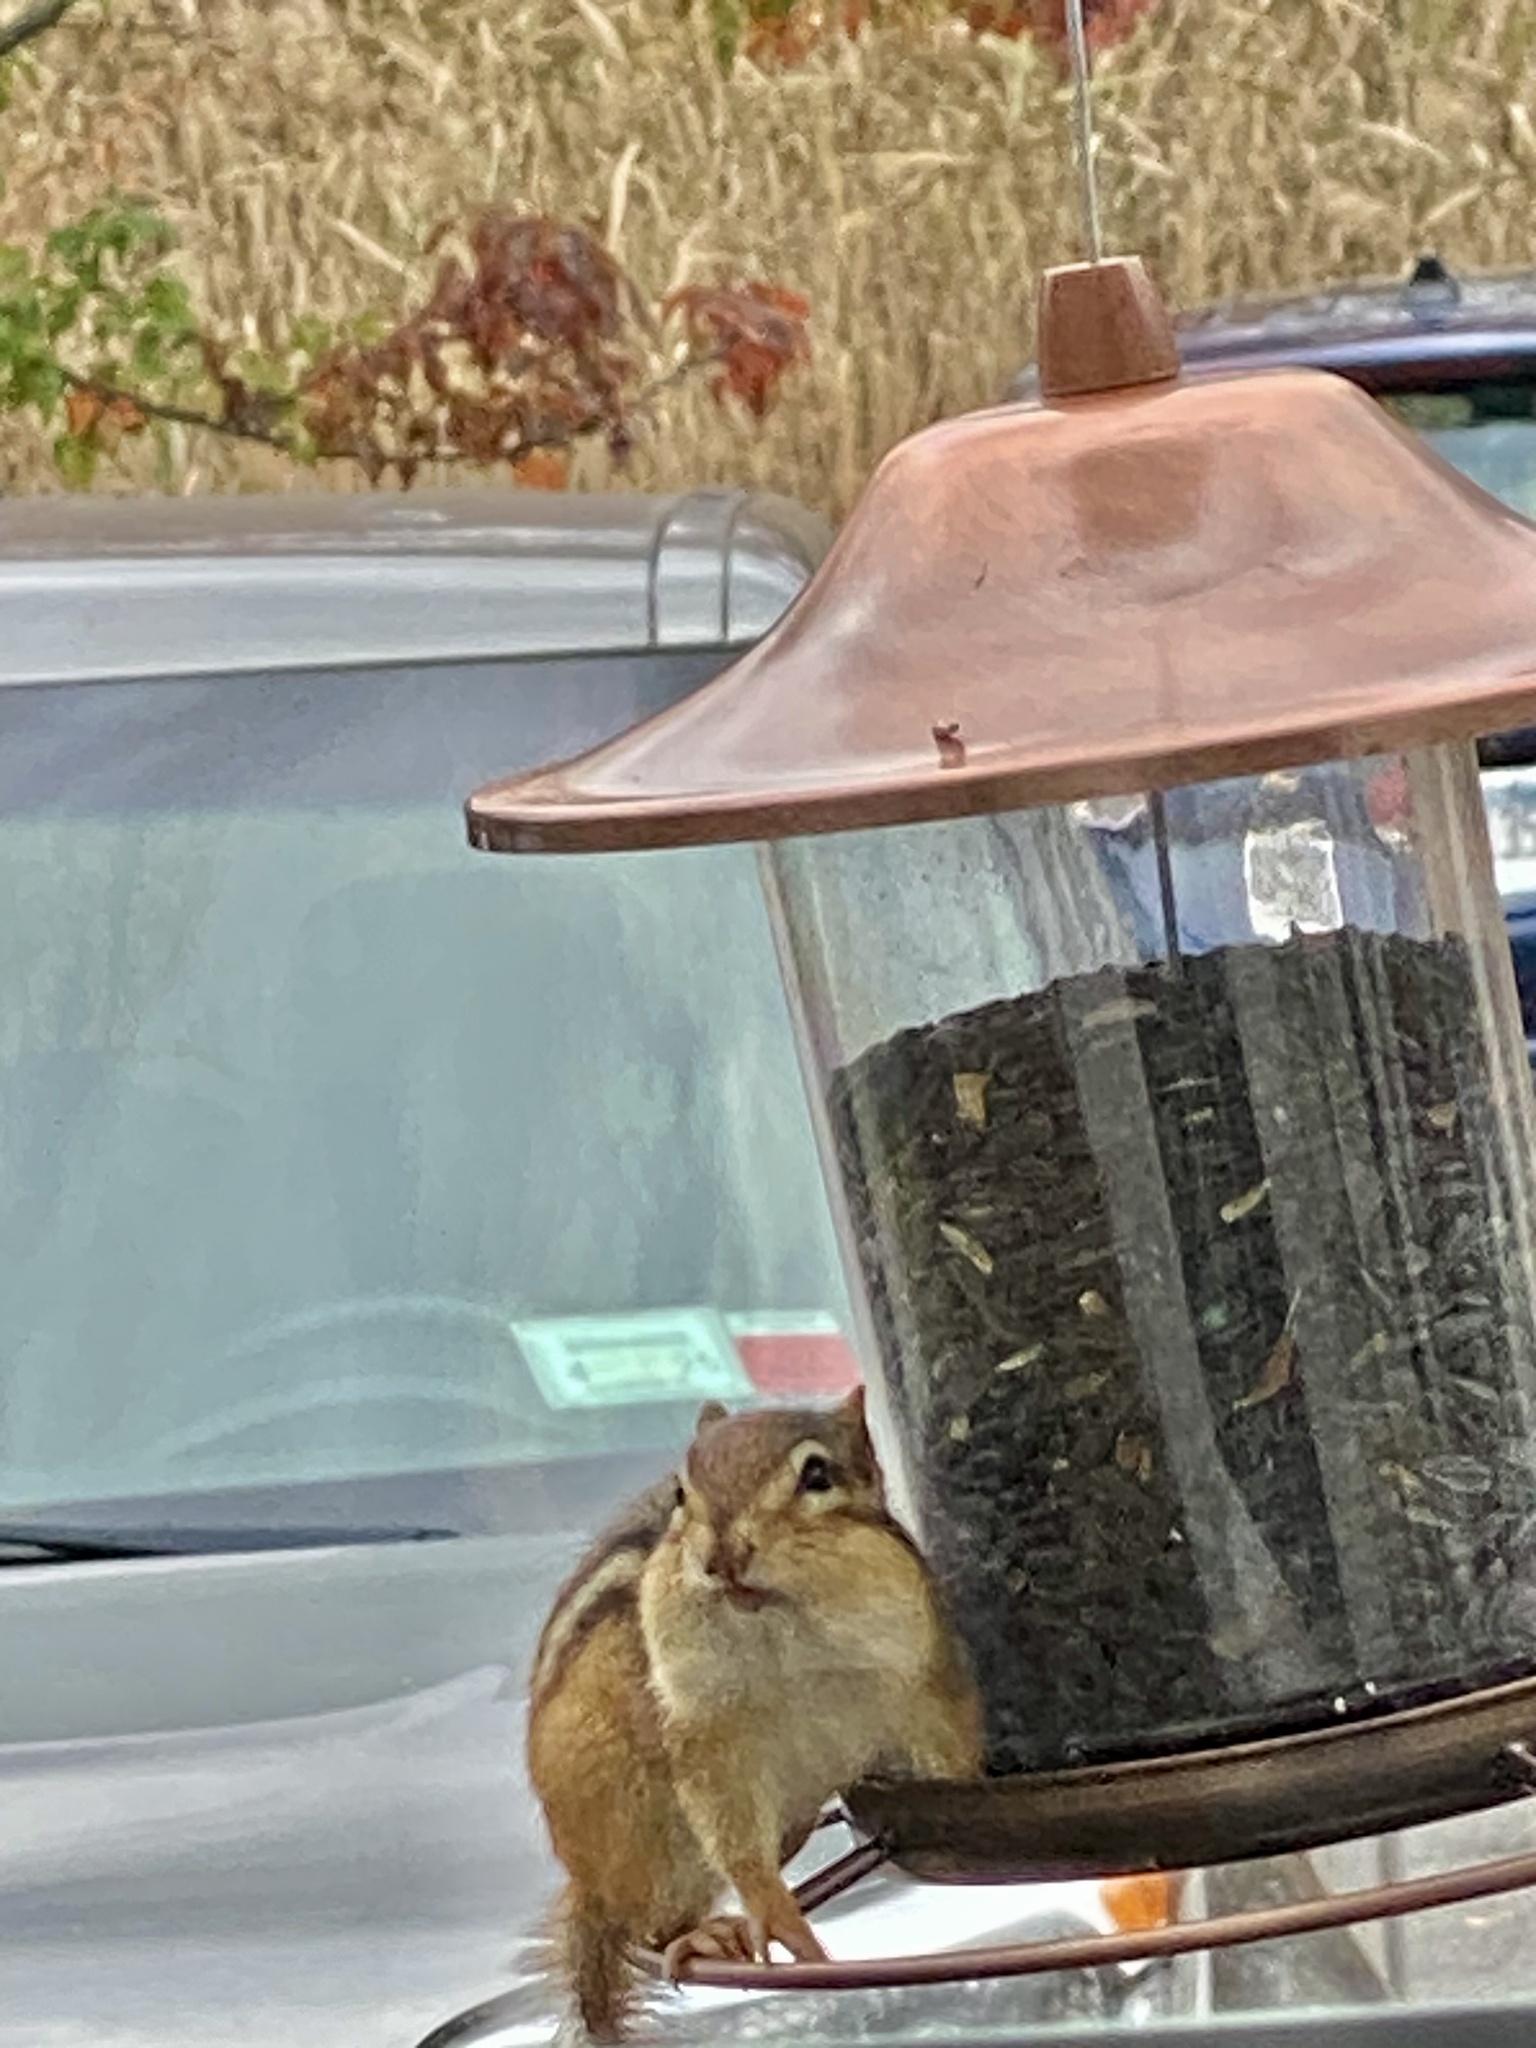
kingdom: Animalia
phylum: Chordata
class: Mammalia
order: Rodentia
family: Sciuridae
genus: Tamias
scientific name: Tamias striatus
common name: Eastern chipmunk
